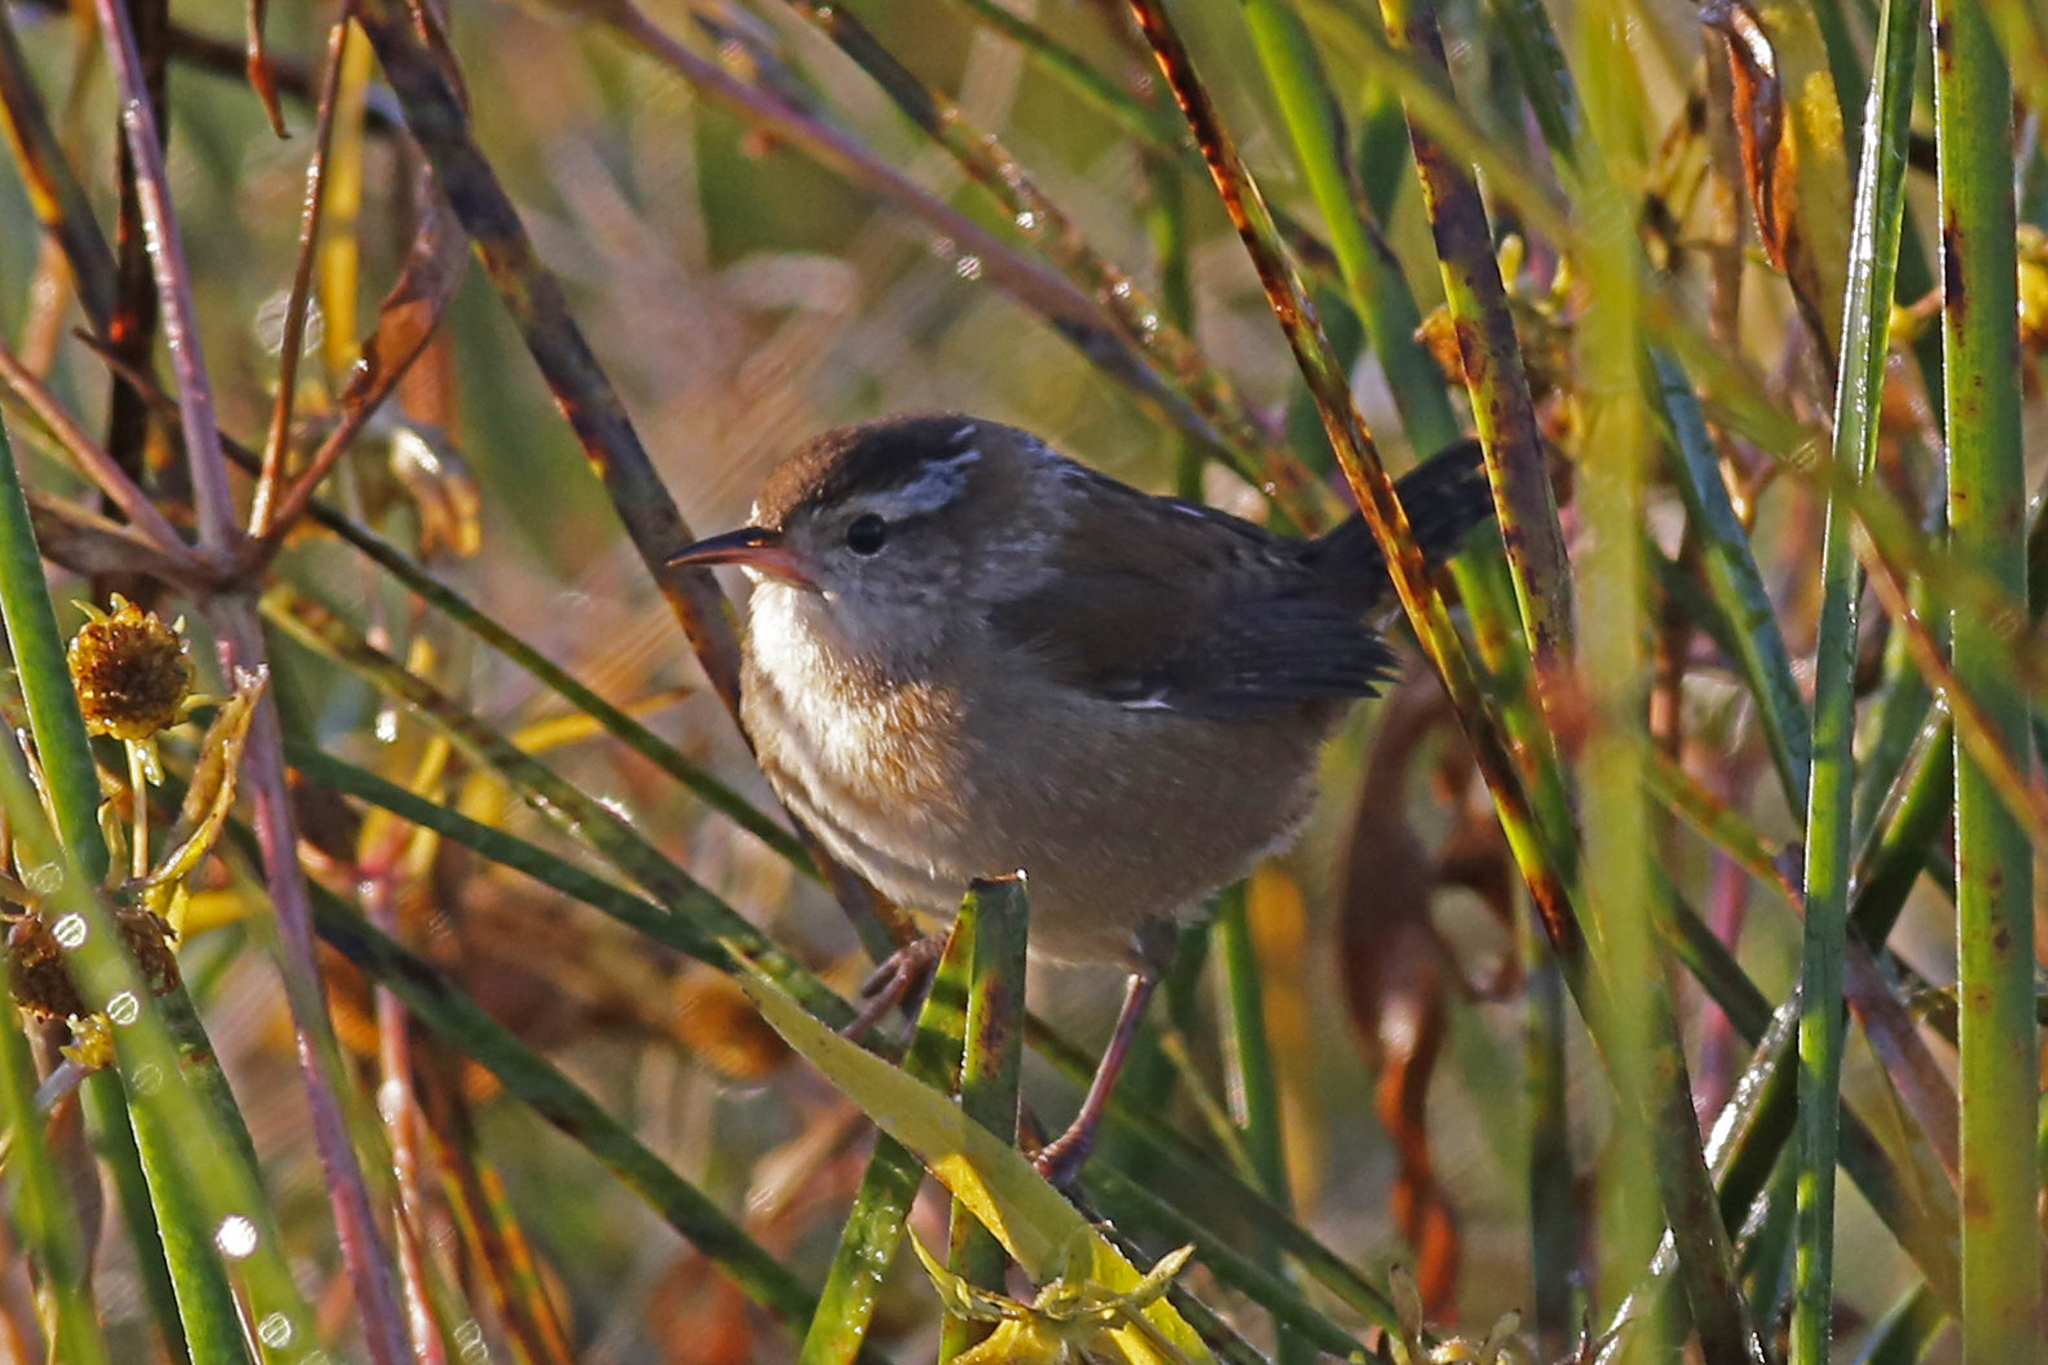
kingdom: Animalia
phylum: Chordata
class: Aves
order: Passeriformes
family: Troglodytidae
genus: Cistothorus
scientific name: Cistothorus palustris
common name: Marsh wren
